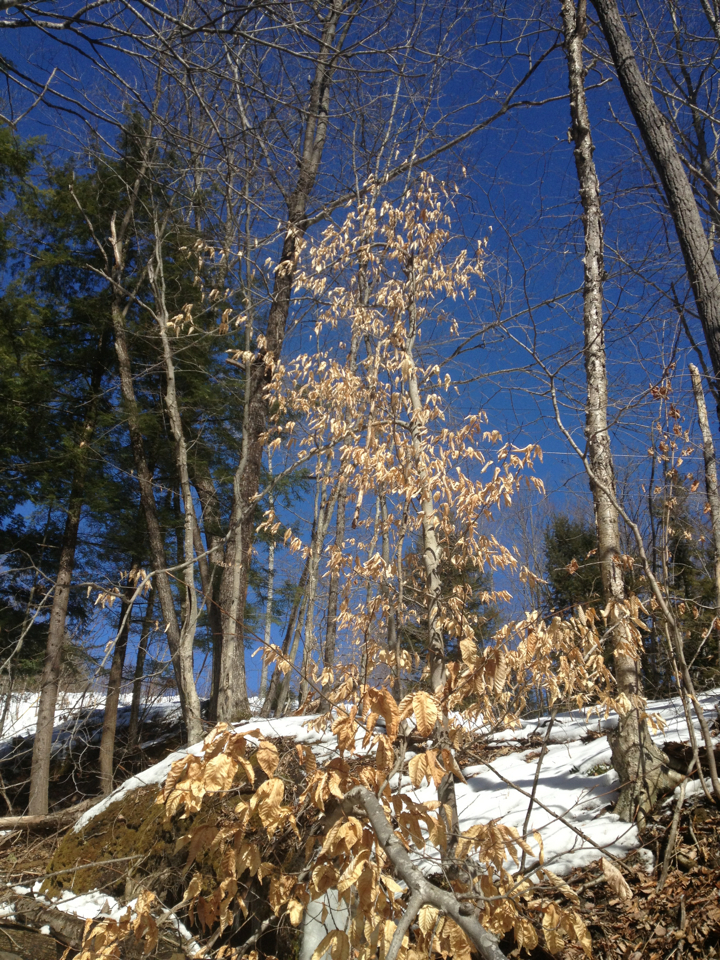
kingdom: Plantae
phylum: Tracheophyta
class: Magnoliopsida
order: Fagales
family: Fagaceae
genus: Fagus
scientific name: Fagus grandifolia
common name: American beech
